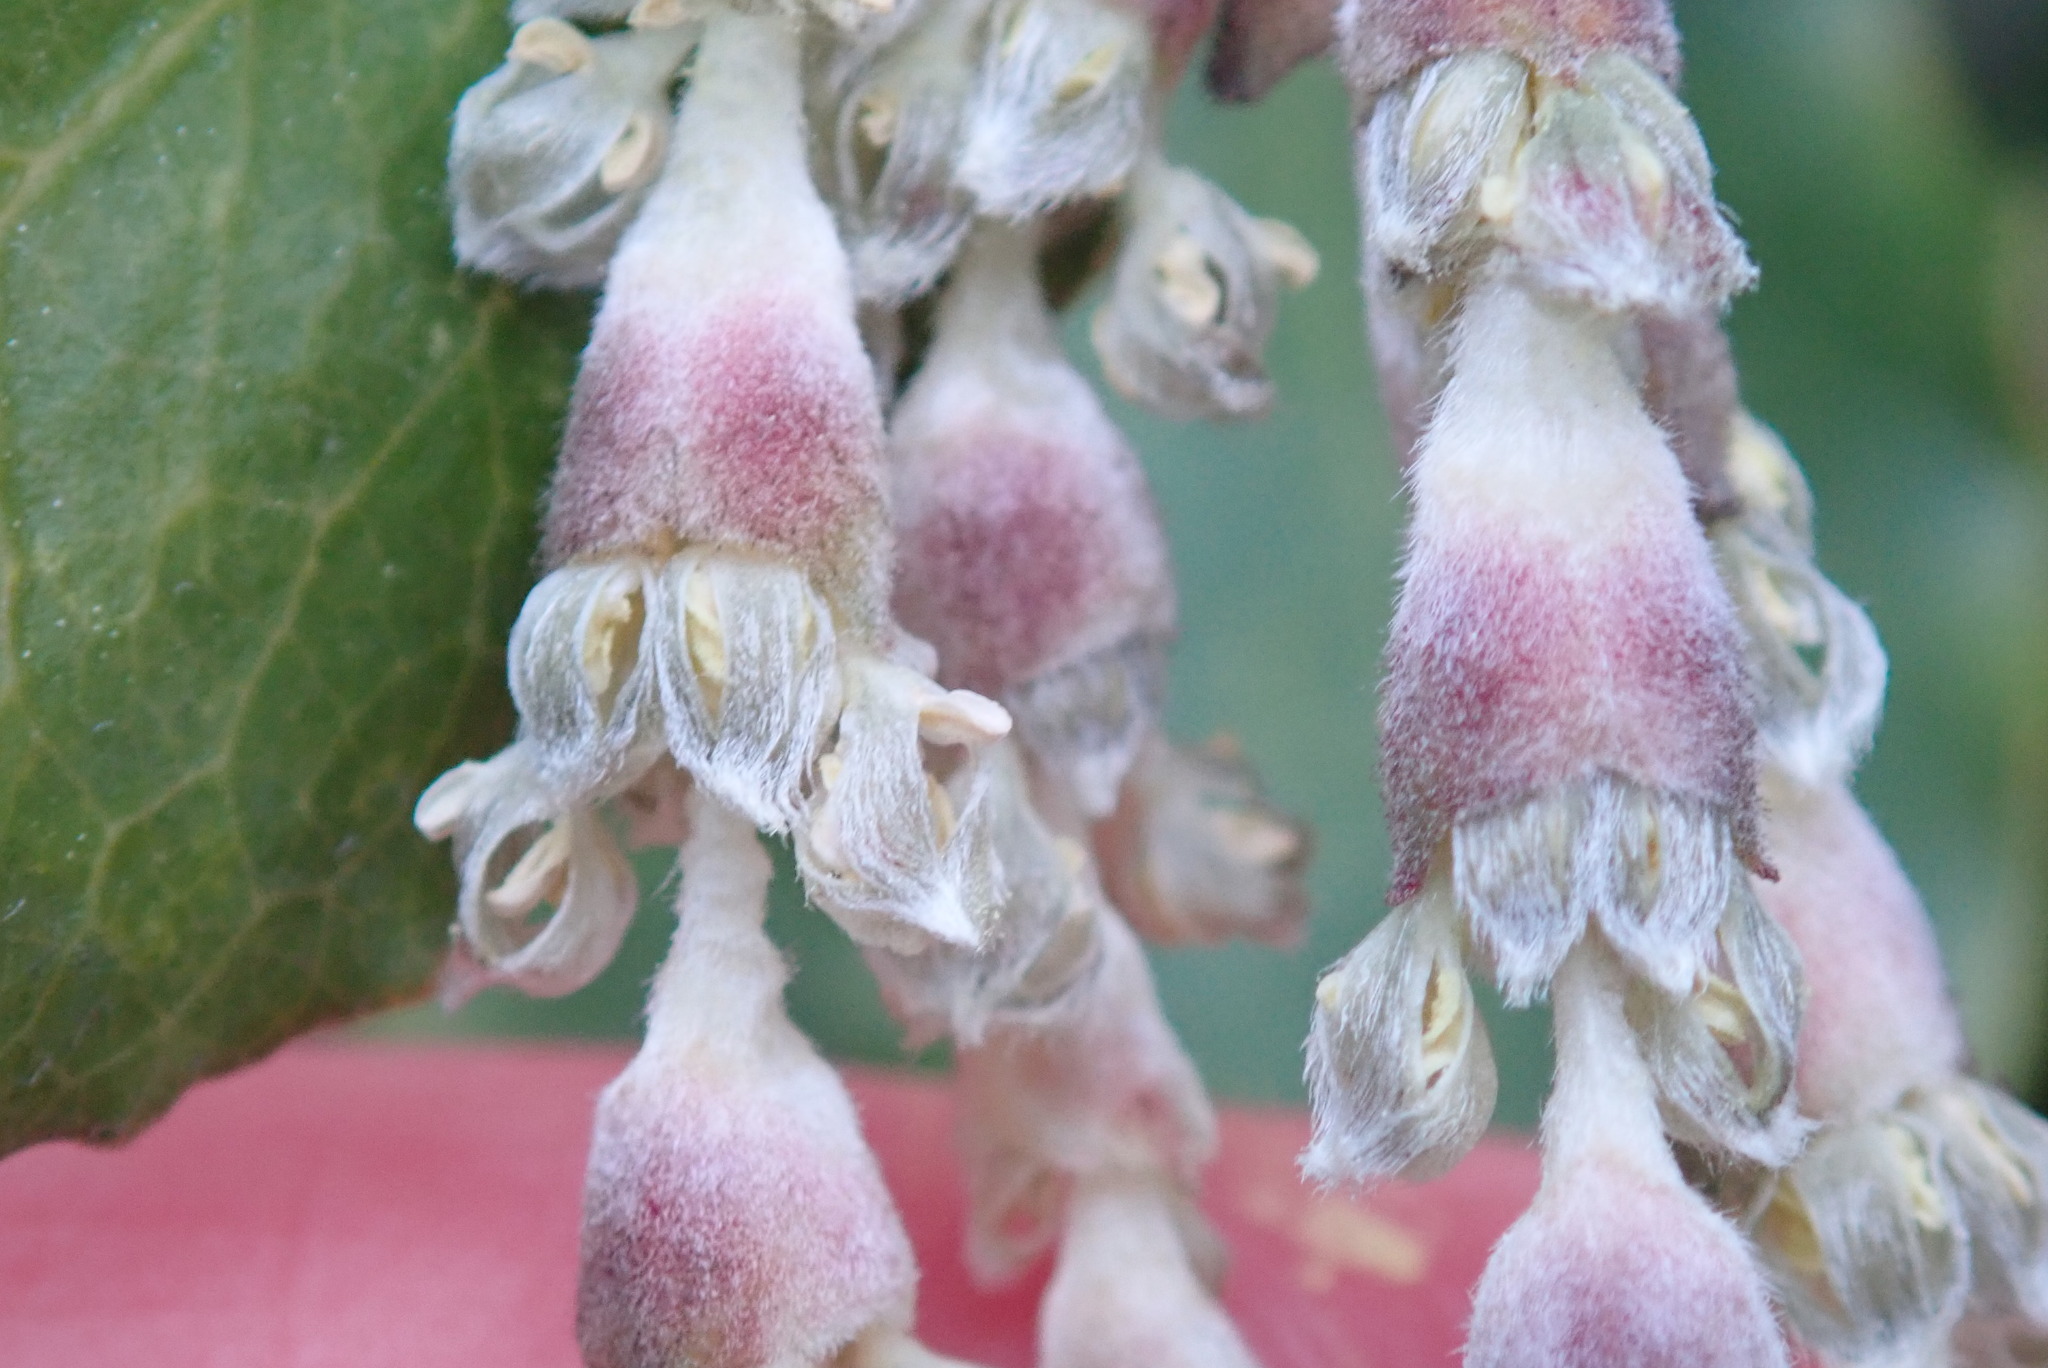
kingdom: Plantae
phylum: Tracheophyta
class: Magnoliopsida
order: Garryales
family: Garryaceae
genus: Garrya
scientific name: Garrya elliptica
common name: Silk-tassel
